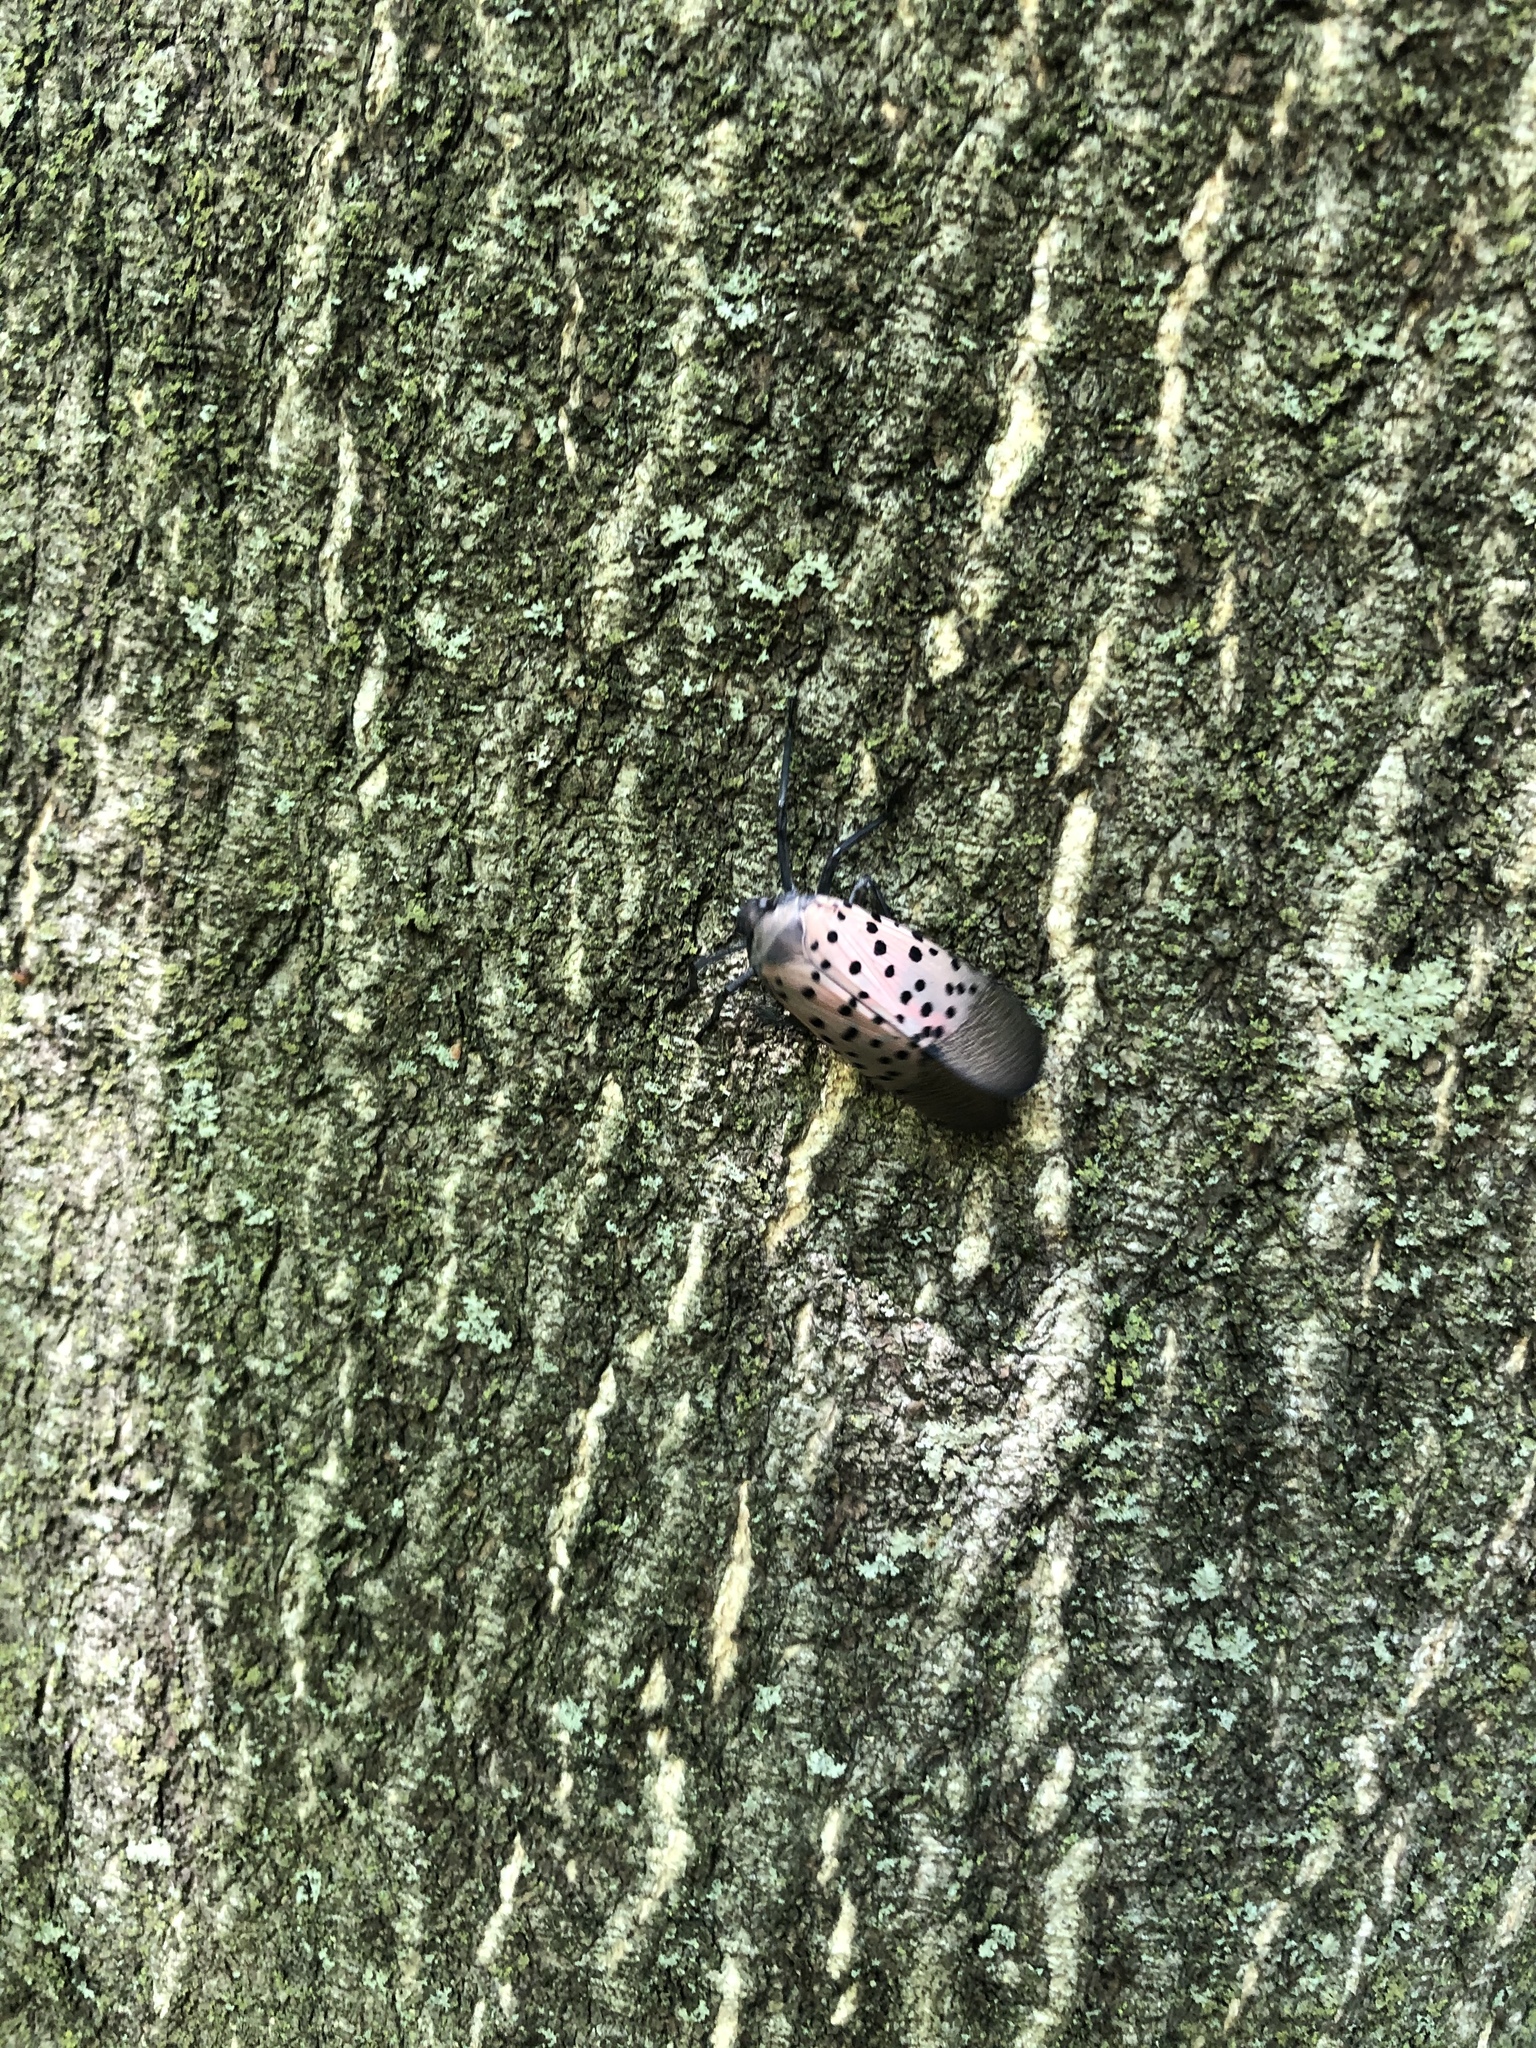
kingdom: Animalia
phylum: Arthropoda
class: Insecta
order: Hemiptera
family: Fulgoridae
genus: Lycorma
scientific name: Lycorma delicatula
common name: Spotted lanternfly
